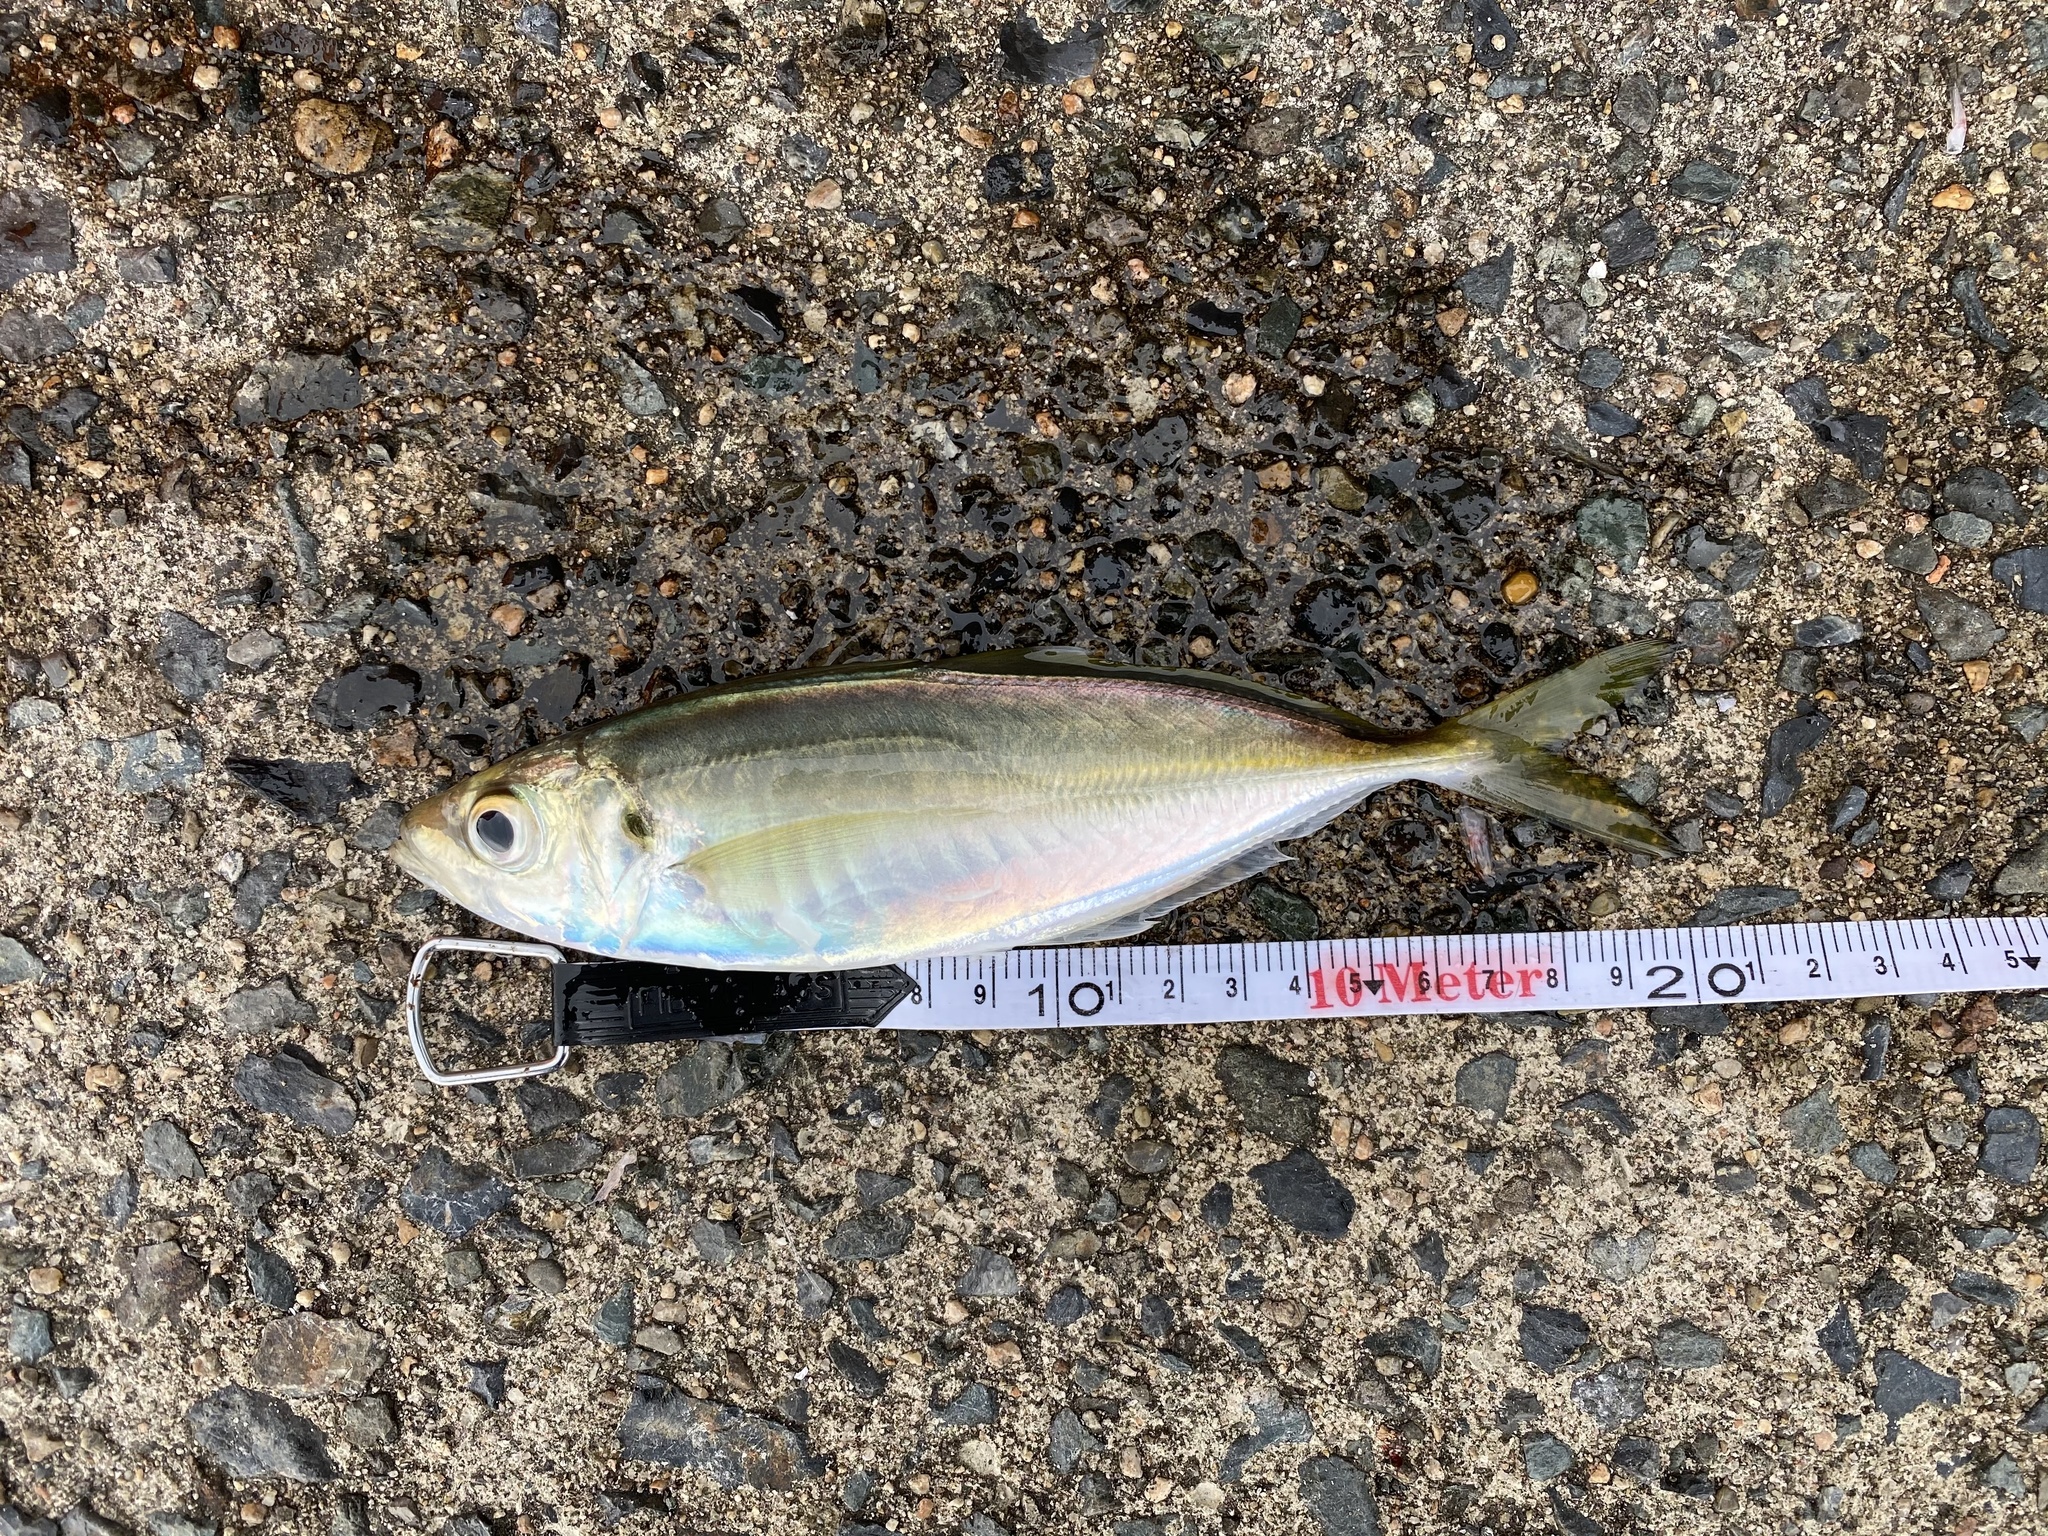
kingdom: Animalia
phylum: Chordata
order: Perciformes
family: Carangidae
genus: Trachurus
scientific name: Trachurus japonicus
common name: Japanese jack mackerel
